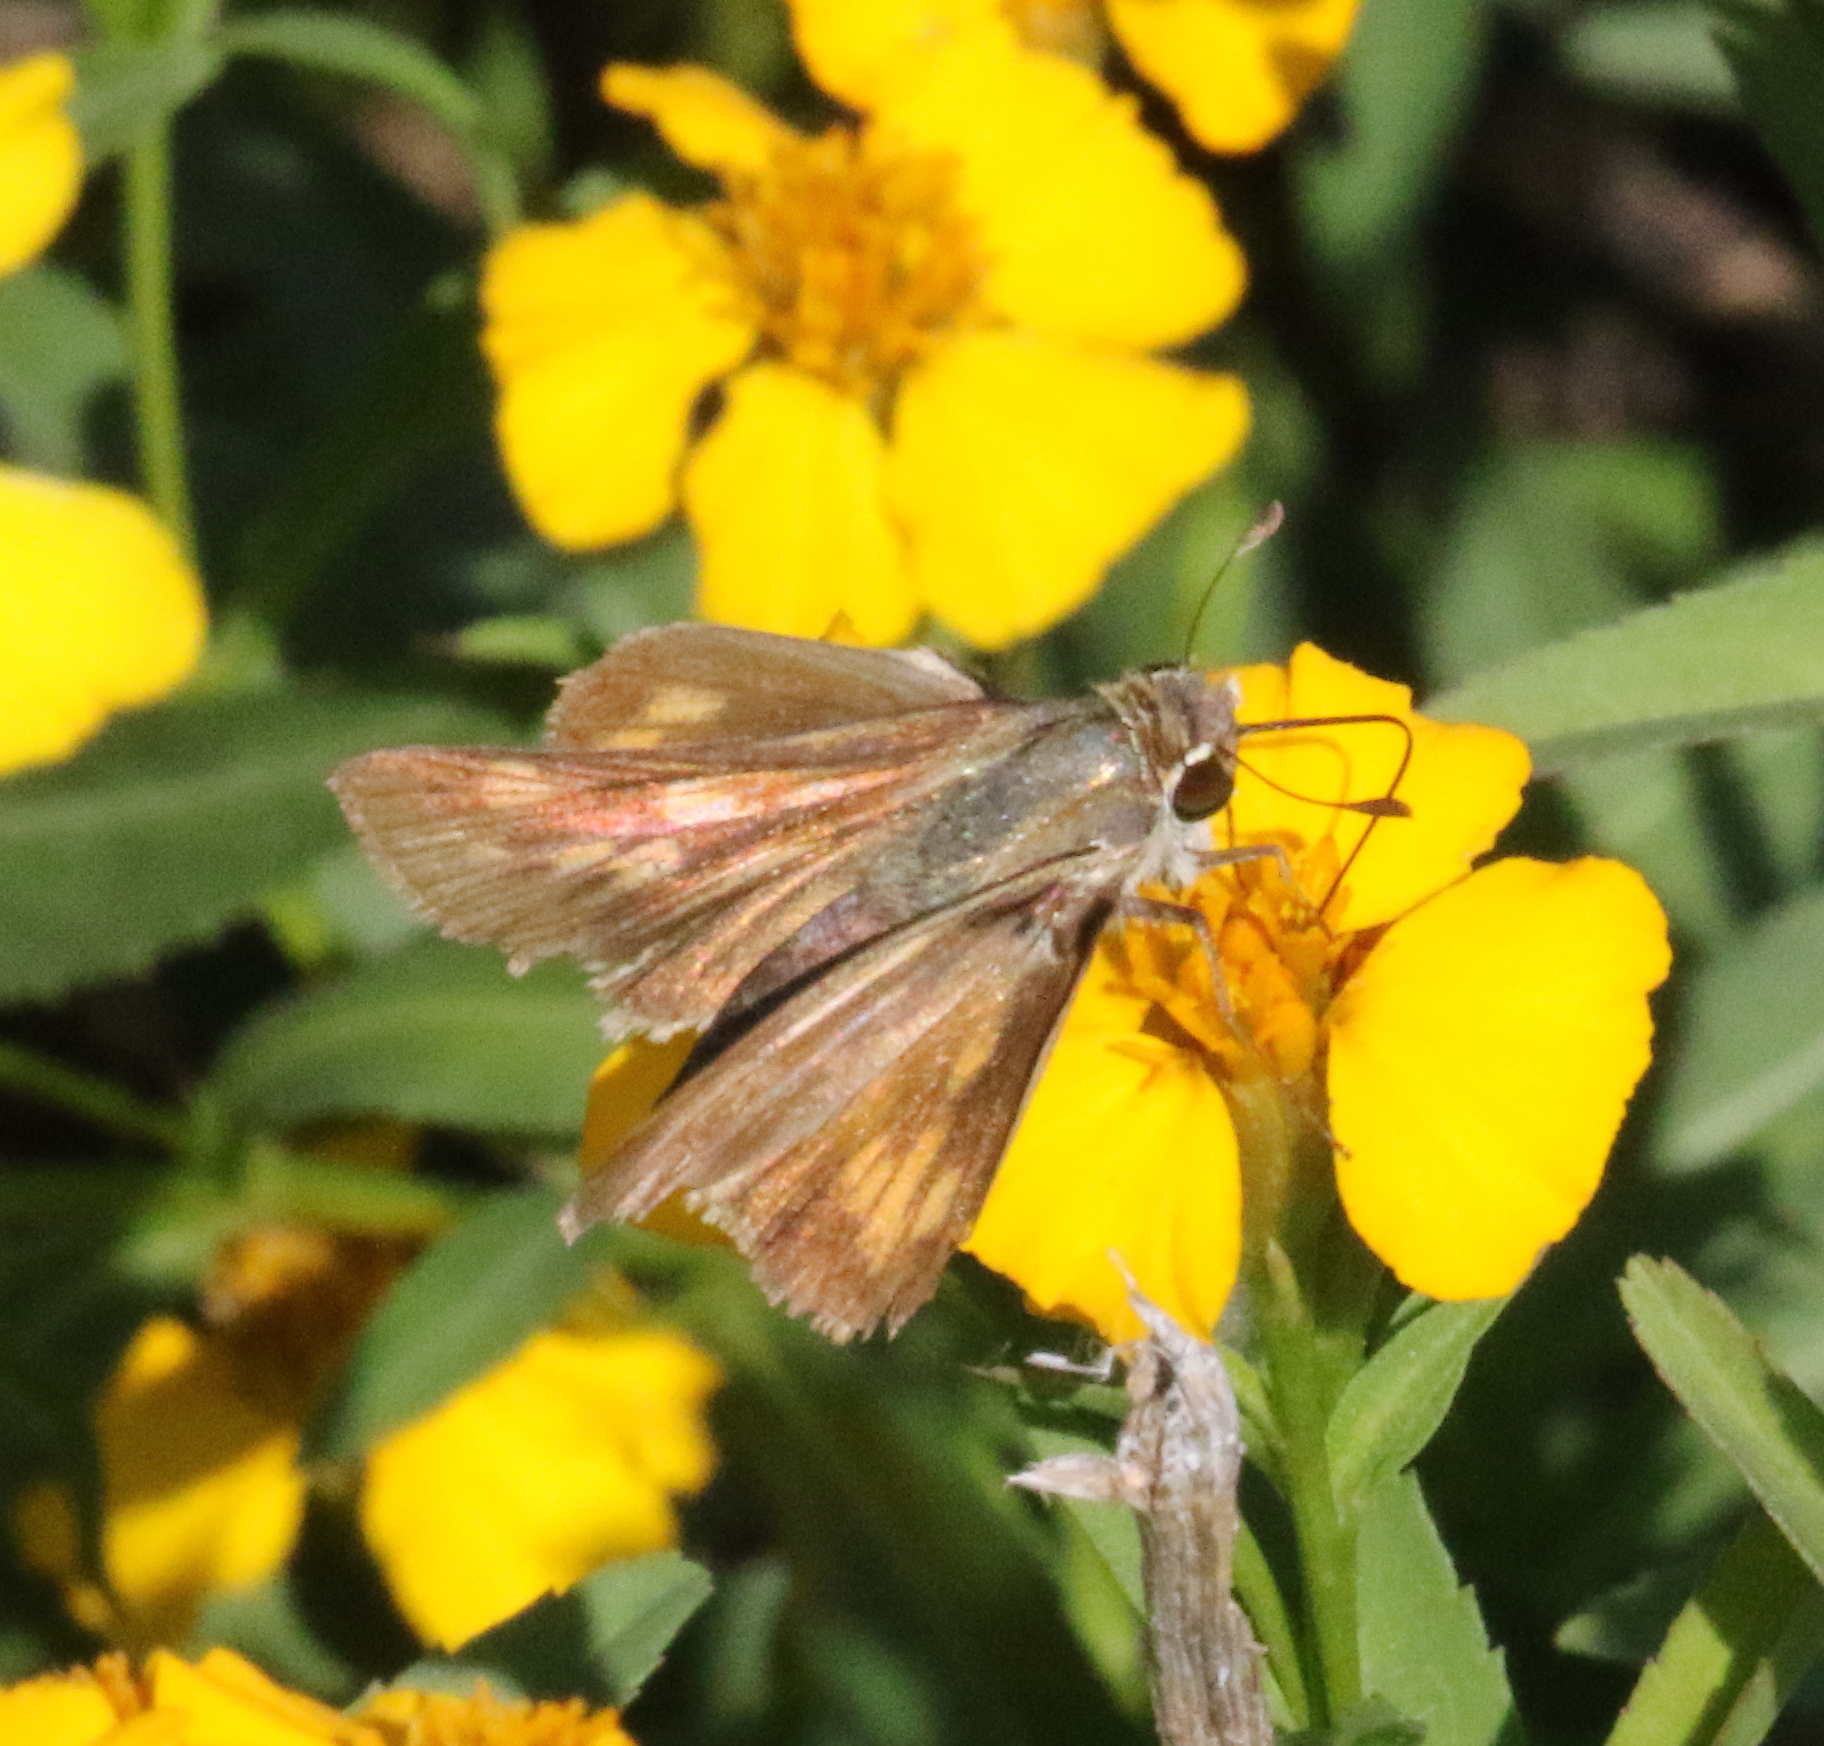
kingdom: Animalia
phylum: Arthropoda
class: Insecta
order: Lepidoptera
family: Hesperiidae
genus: Hylephila
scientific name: Hylephila phyleus
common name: Fiery skipper
